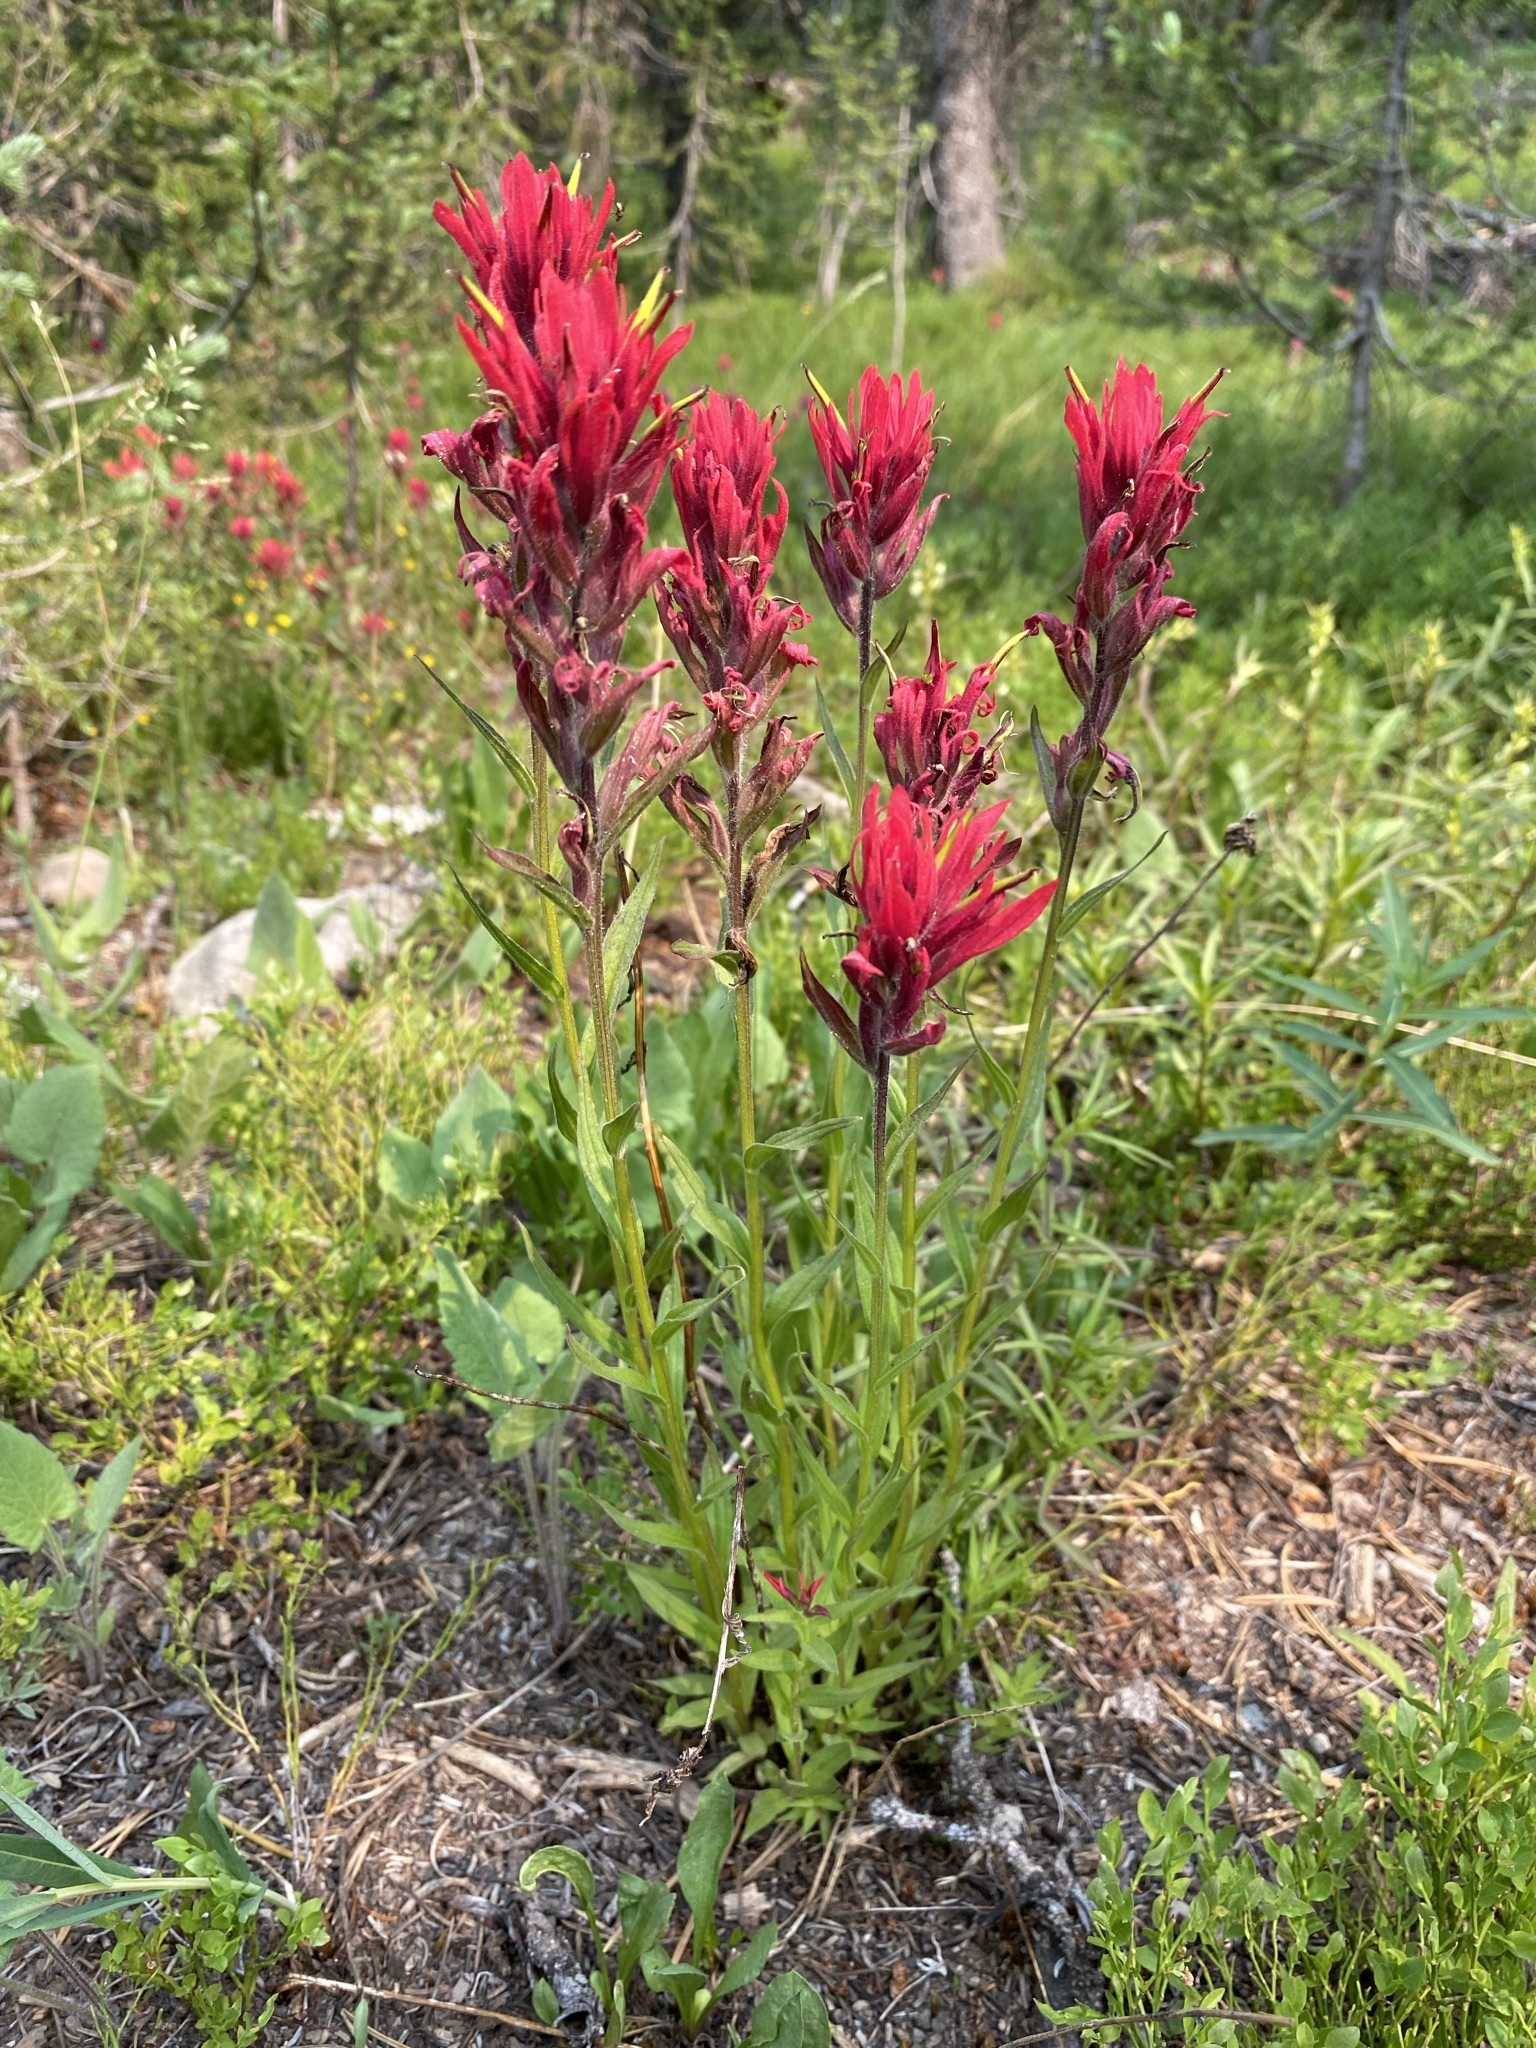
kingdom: Plantae
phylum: Tracheophyta
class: Magnoliopsida
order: Lamiales
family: Orobanchaceae
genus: Castilleja
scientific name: Castilleja miniata
